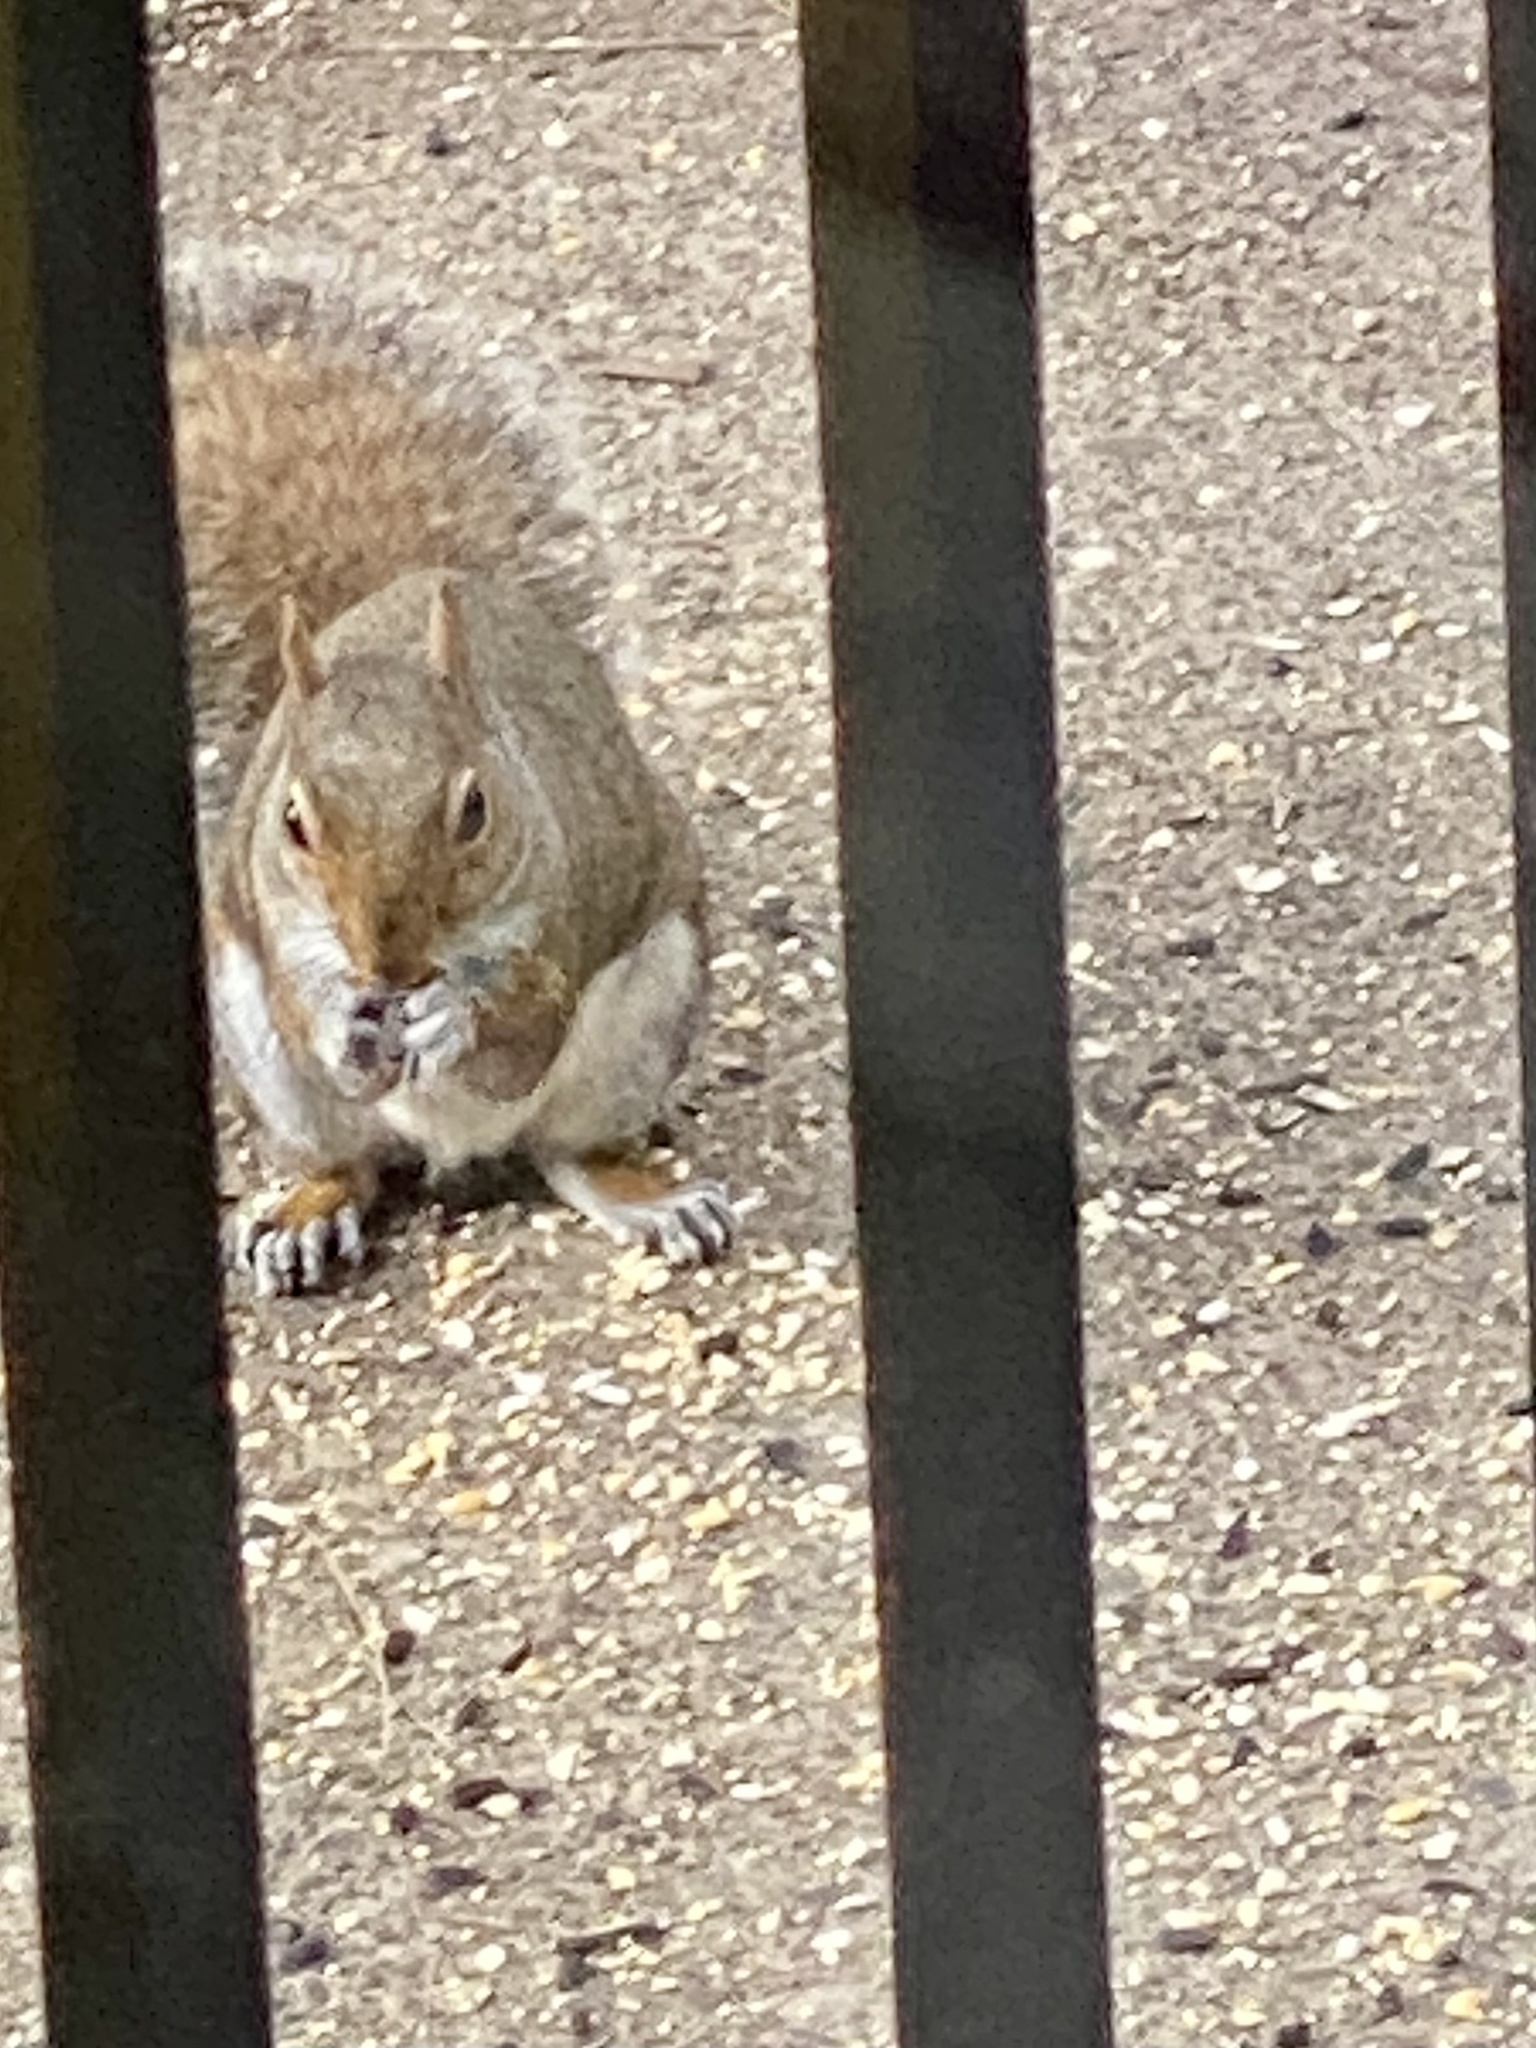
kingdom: Animalia
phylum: Chordata
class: Mammalia
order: Rodentia
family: Sciuridae
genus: Sciurus
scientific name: Sciurus carolinensis
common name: Eastern gray squirrel
